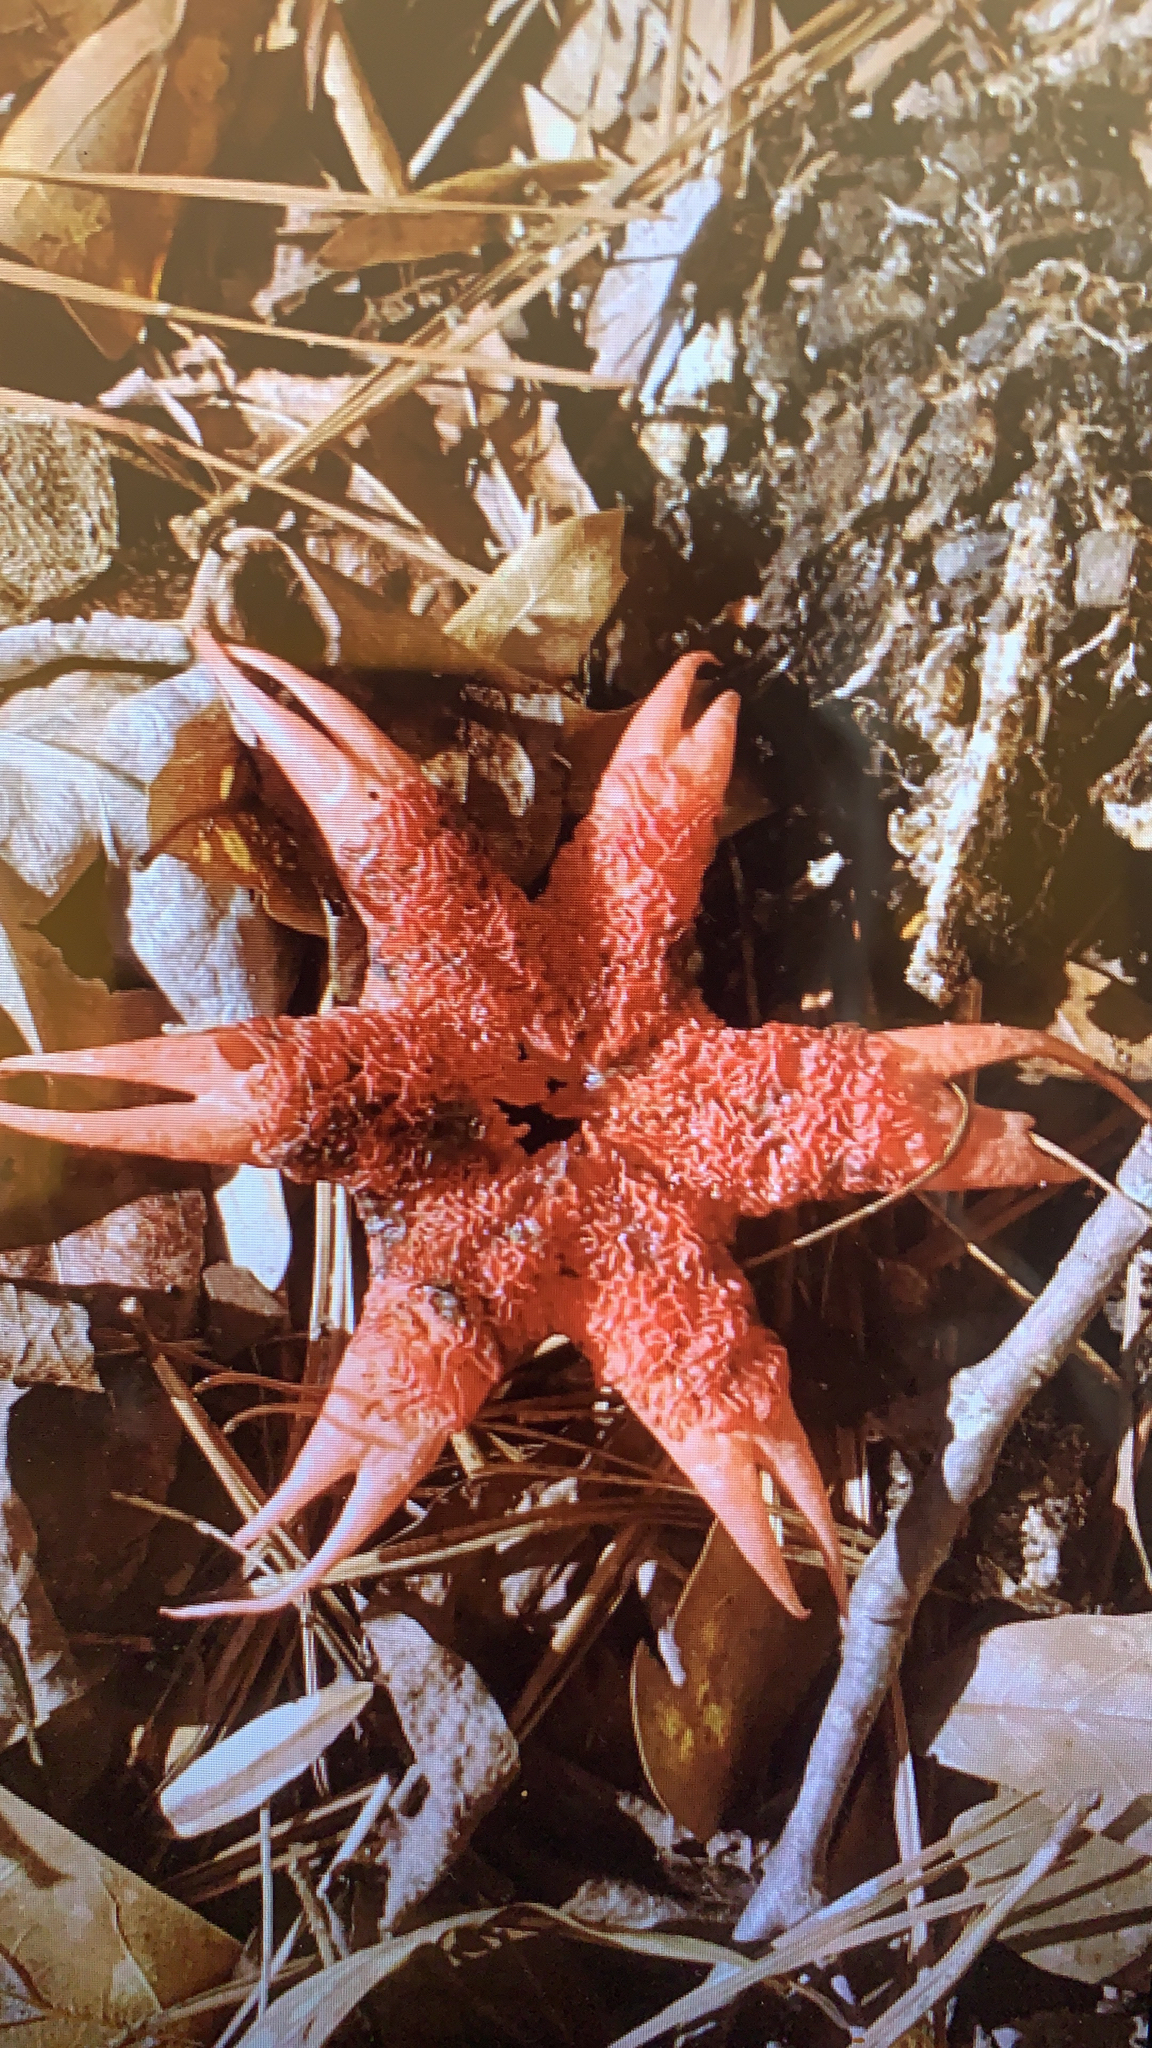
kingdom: Fungi
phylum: Basidiomycota
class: Agaricomycetes
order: Phallales
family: Phallaceae
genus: Aseroe
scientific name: Aseroe rubra
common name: Starfish fungus
